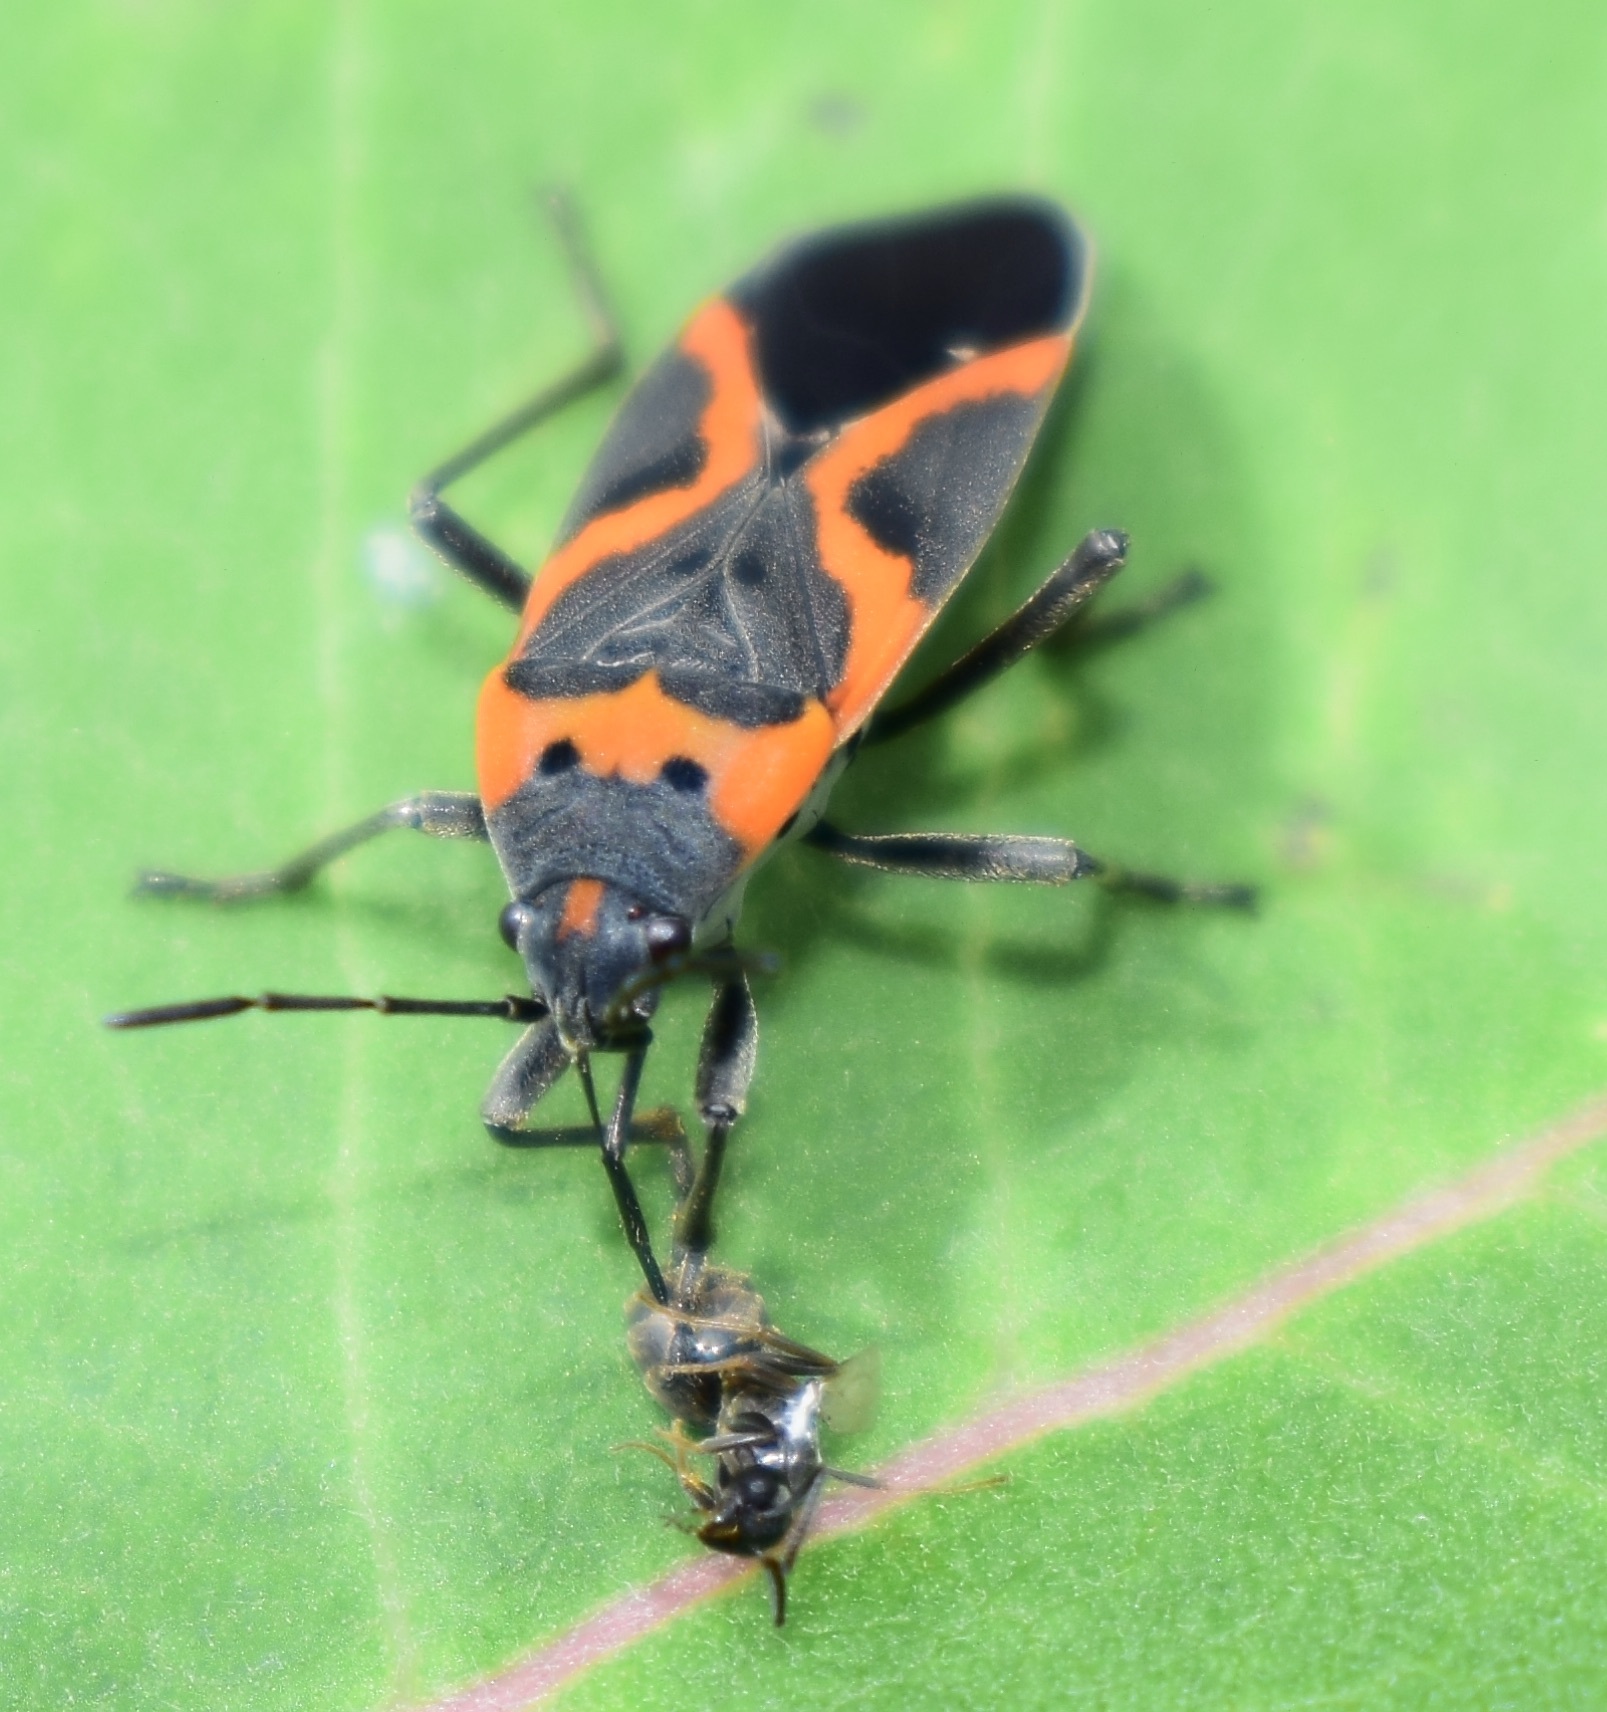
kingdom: Animalia
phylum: Arthropoda
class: Insecta
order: Hemiptera
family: Lygaeidae
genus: Lygaeus
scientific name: Lygaeus kalmii
